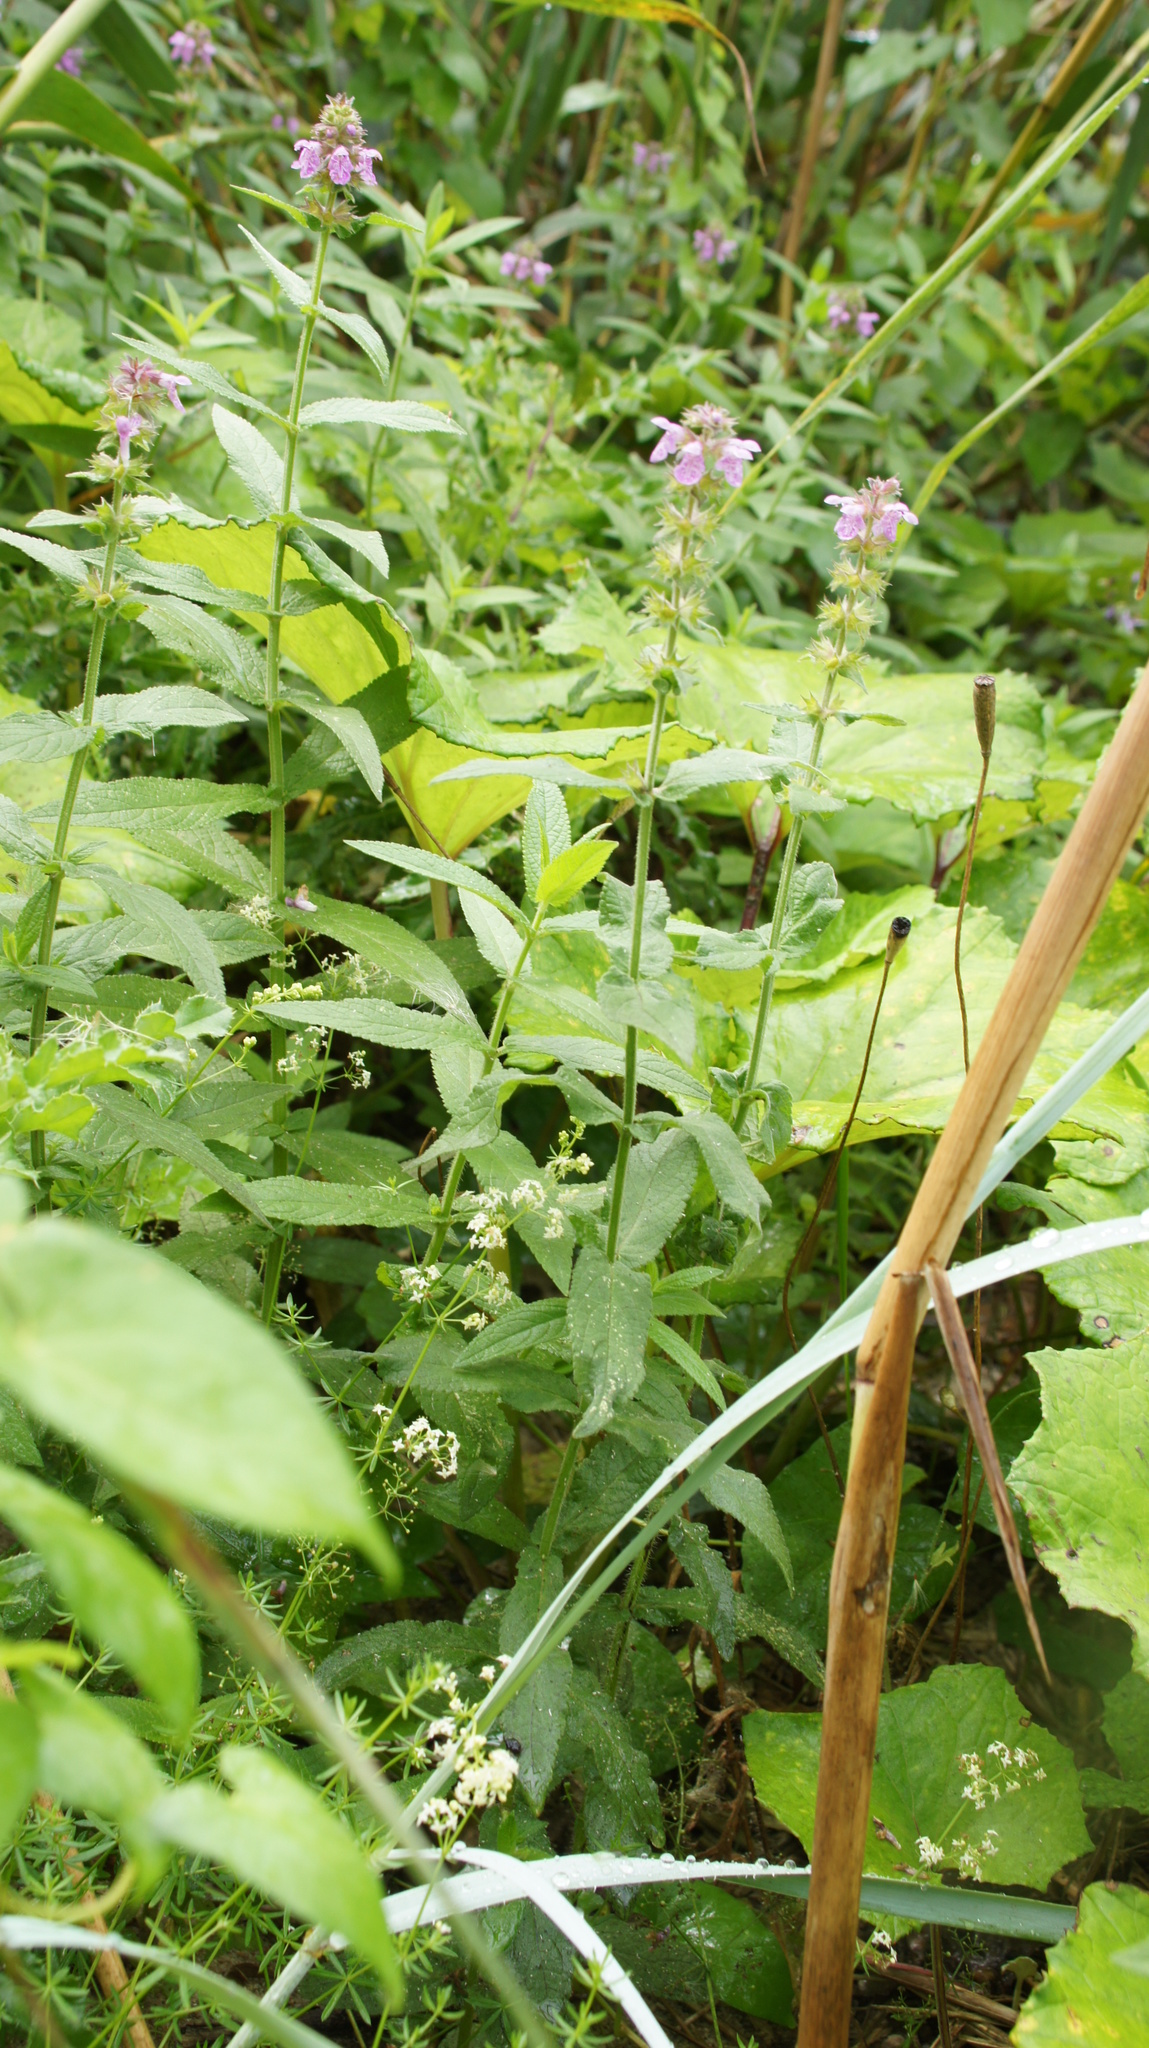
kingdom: Plantae
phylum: Tracheophyta
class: Magnoliopsida
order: Lamiales
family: Lamiaceae
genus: Stachys
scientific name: Stachys palustris
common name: Marsh woundwort
